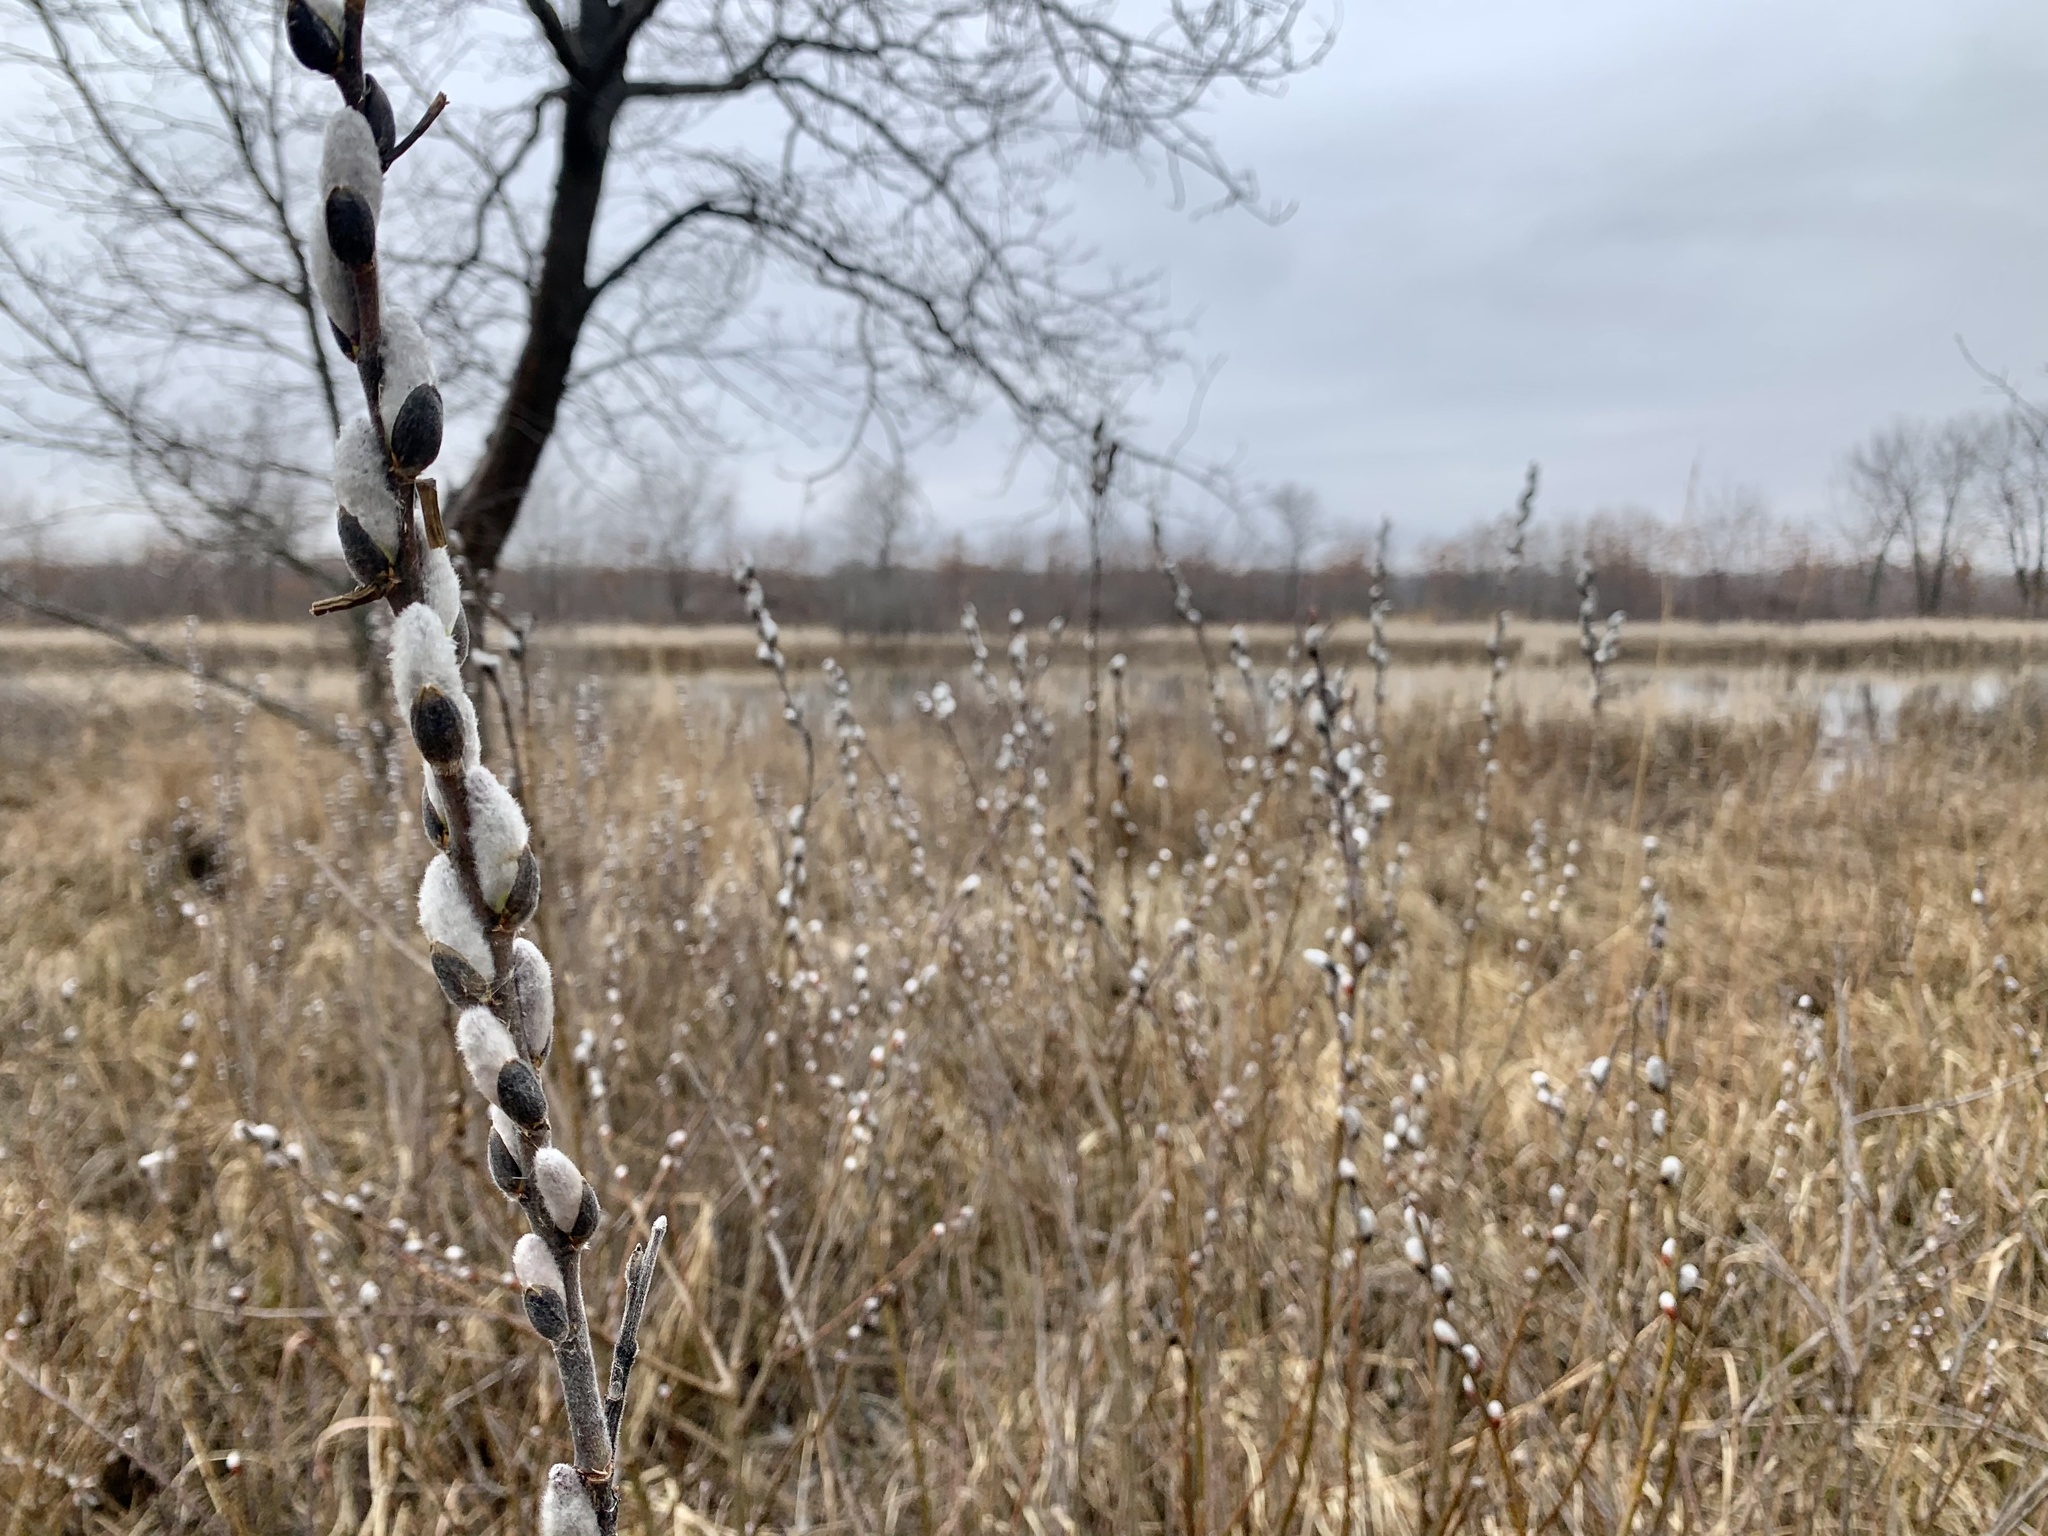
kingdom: Plantae
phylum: Tracheophyta
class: Magnoliopsida
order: Malpighiales
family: Salicaceae
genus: Salix
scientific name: Salix discolor
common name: Glaucous willow
